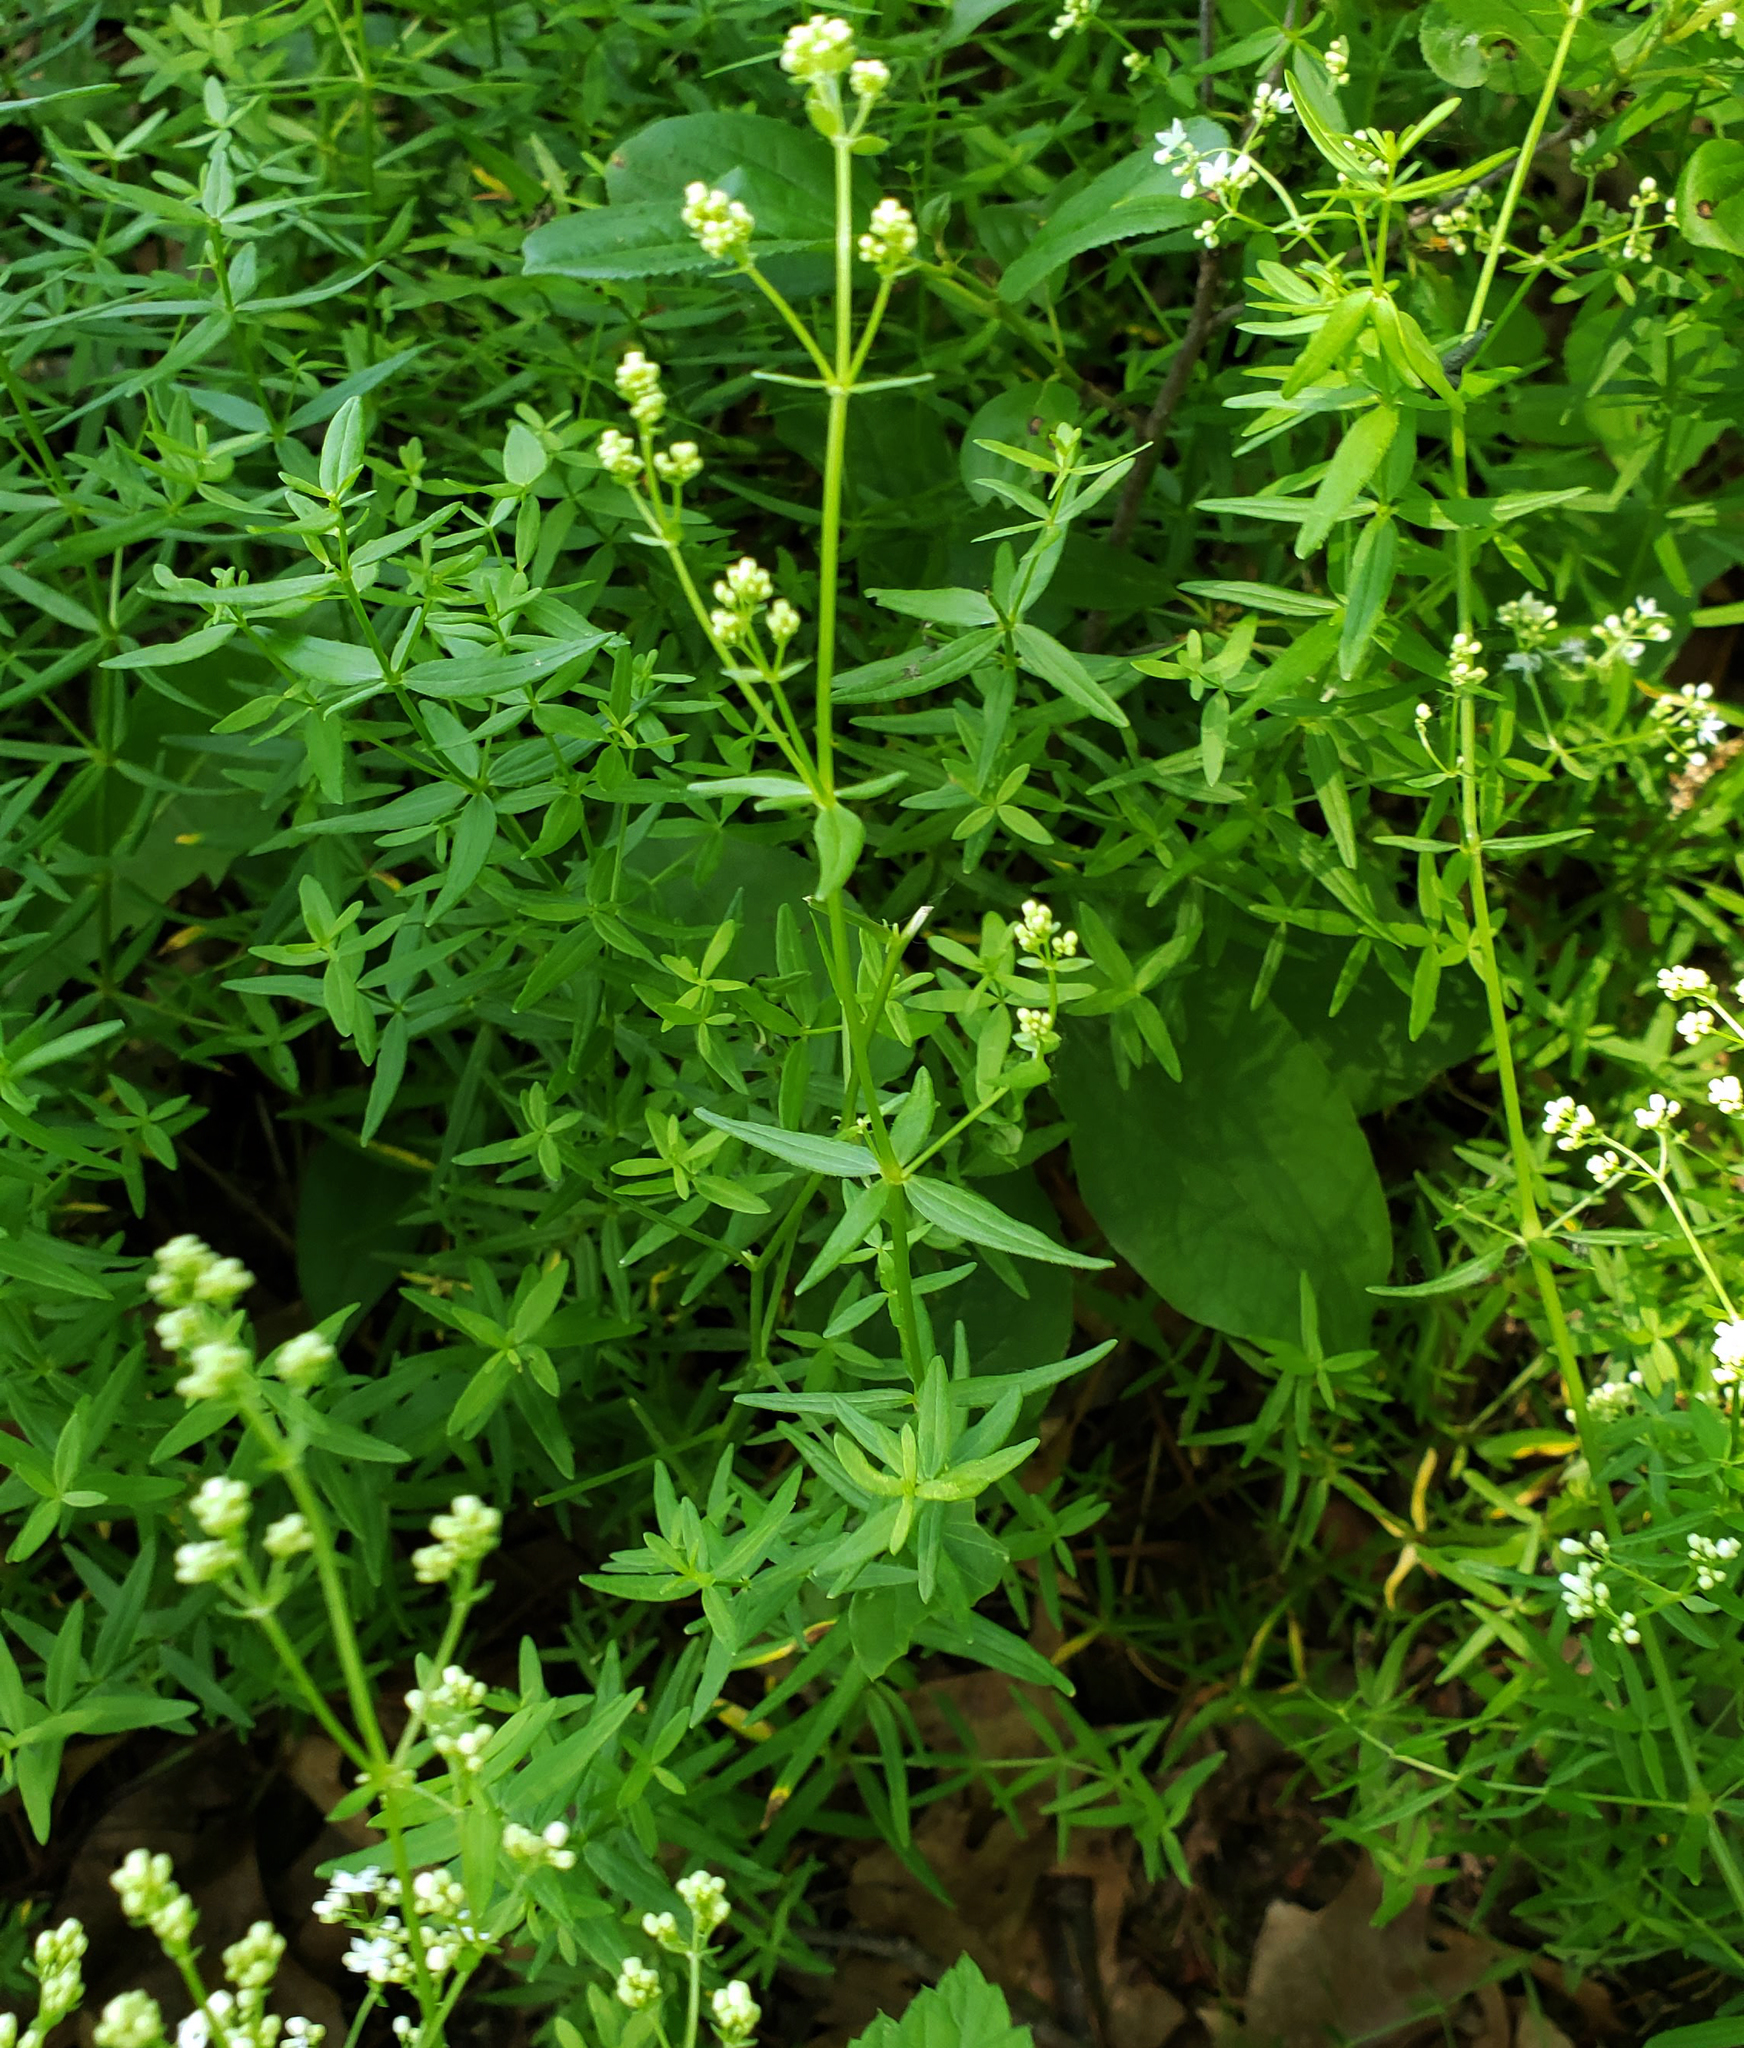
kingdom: Plantae
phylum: Tracheophyta
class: Magnoliopsida
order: Gentianales
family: Rubiaceae
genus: Galium
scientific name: Galium boreale
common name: Northern bedstraw
